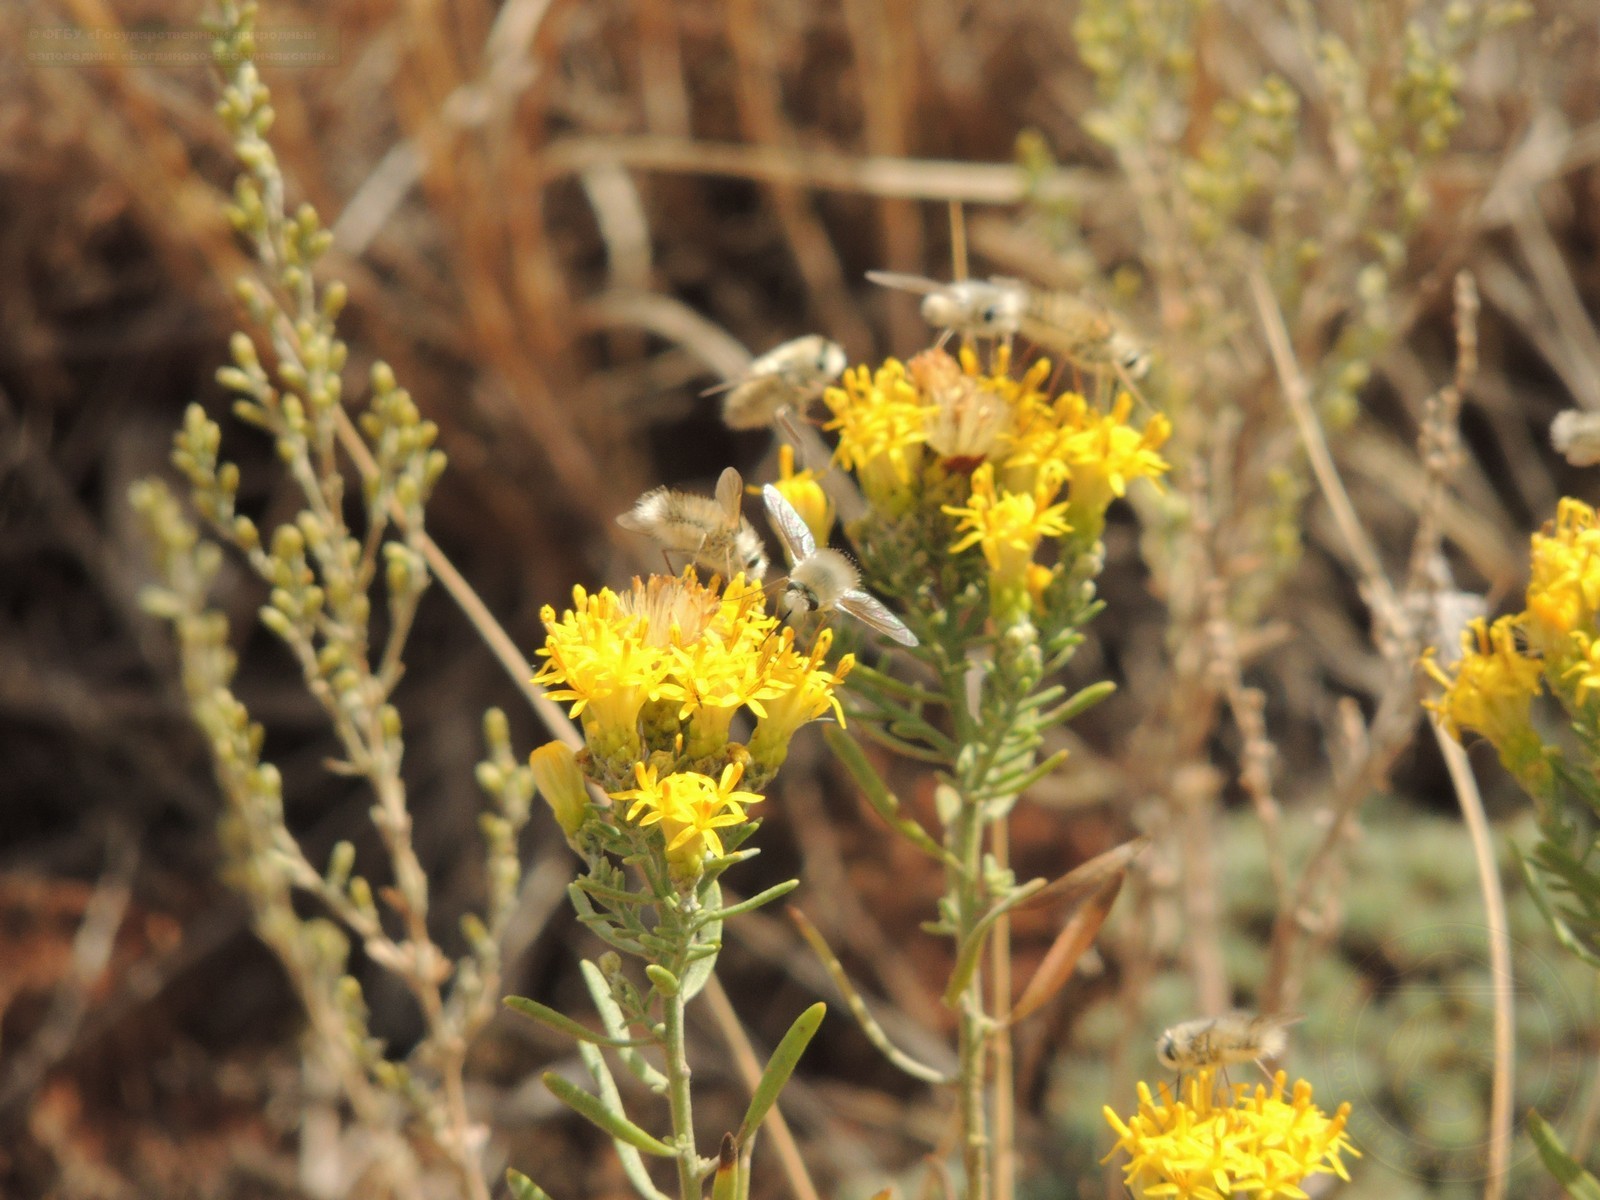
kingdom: Plantae
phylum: Tracheophyta
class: Magnoliopsida
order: Asterales
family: Asteraceae
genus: Galatella
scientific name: Galatella sedifolia
